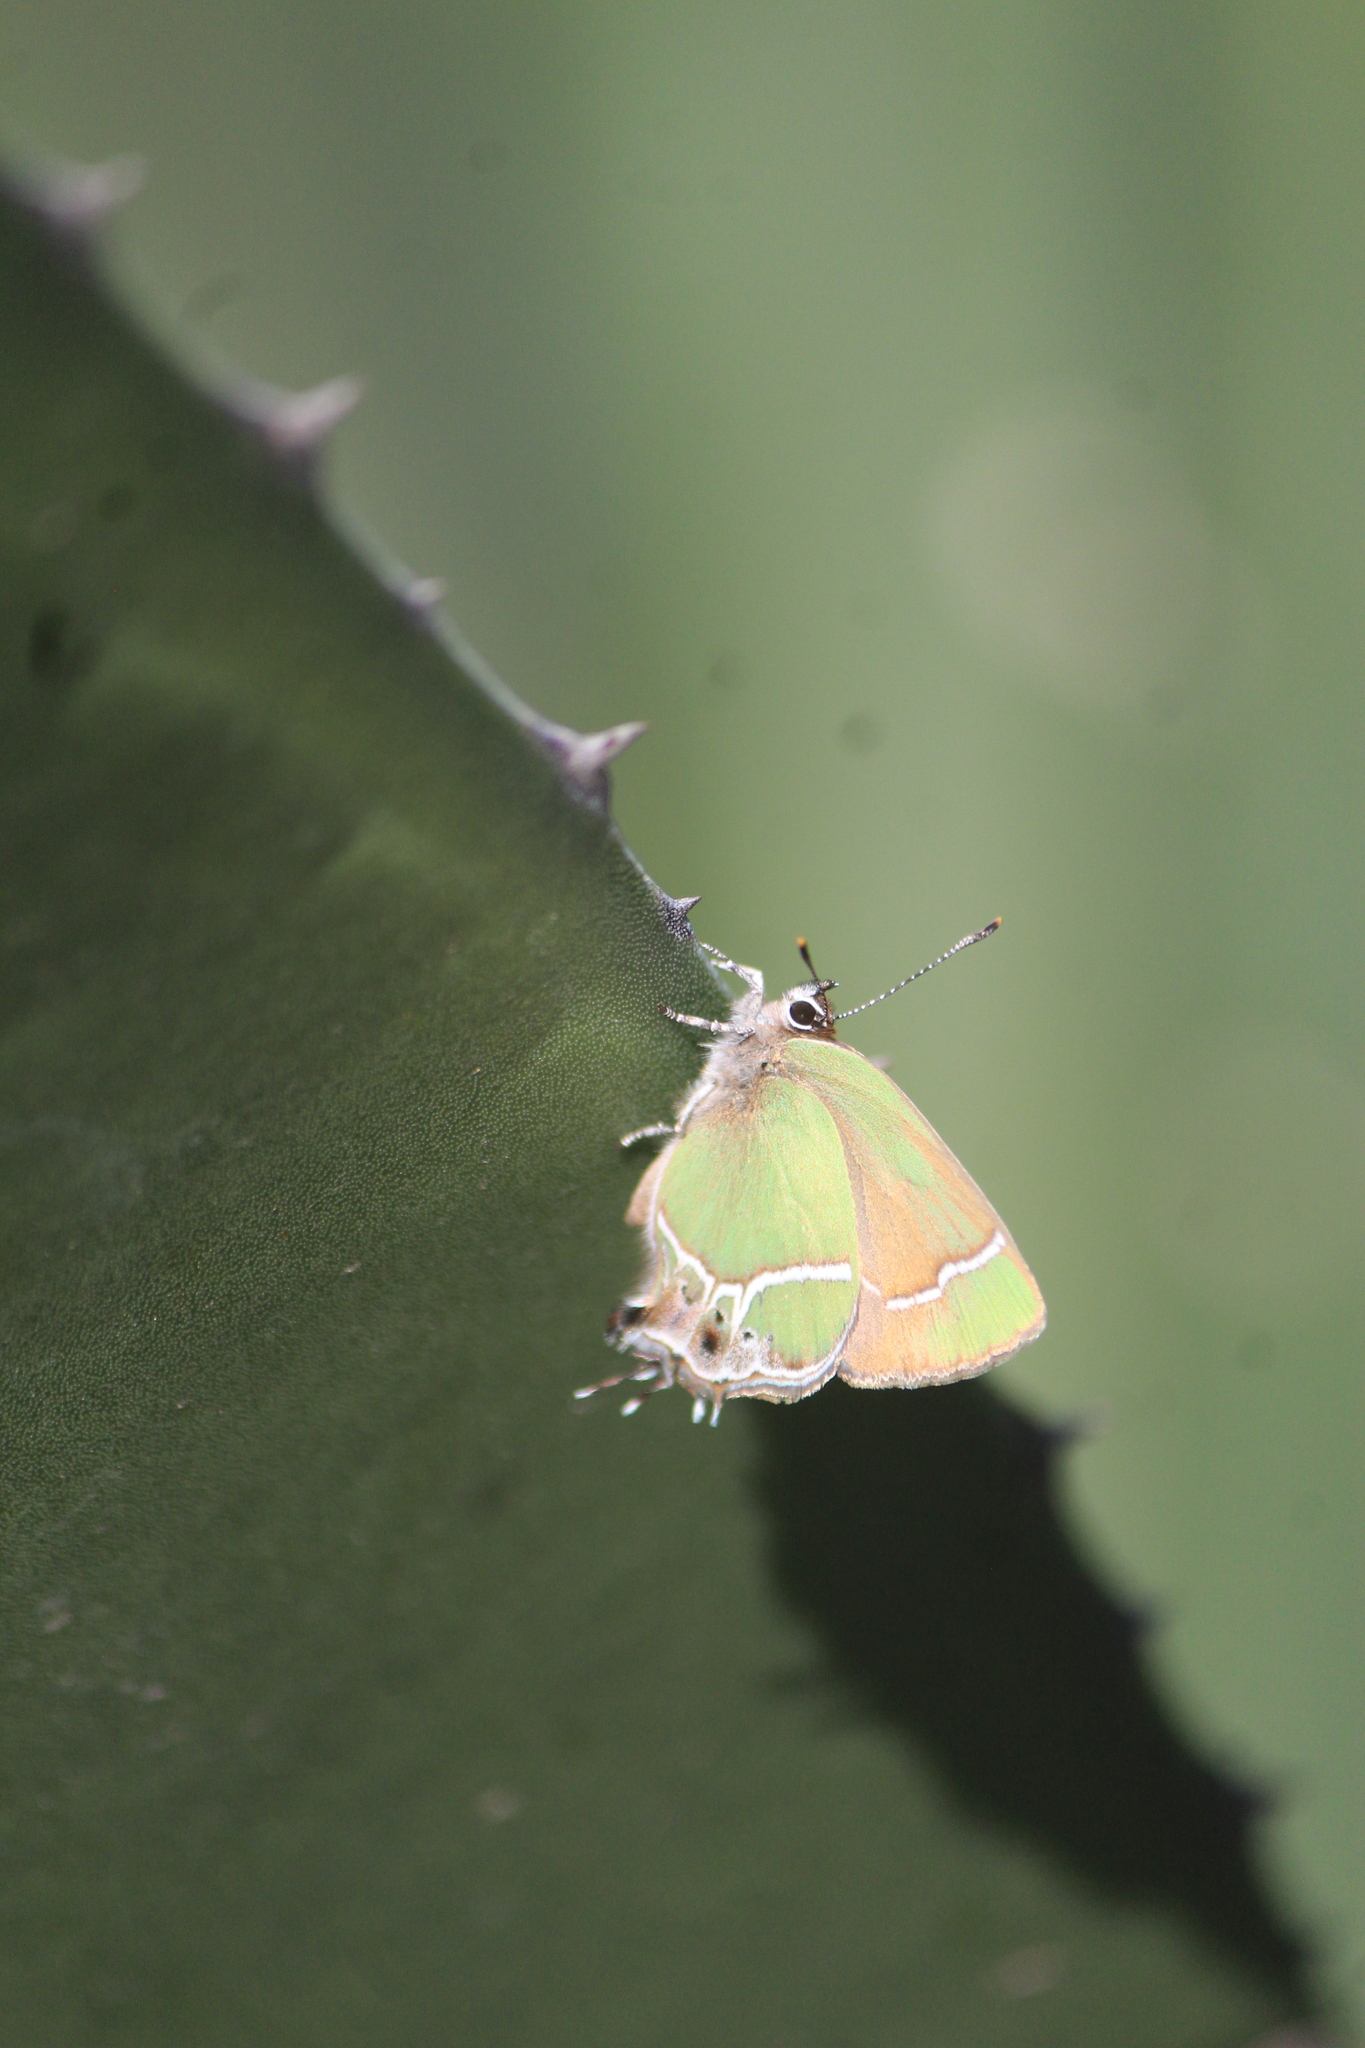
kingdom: Animalia
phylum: Arthropoda
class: Insecta
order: Lepidoptera
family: Lycaenidae
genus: Xamia
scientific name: Xamia xami
